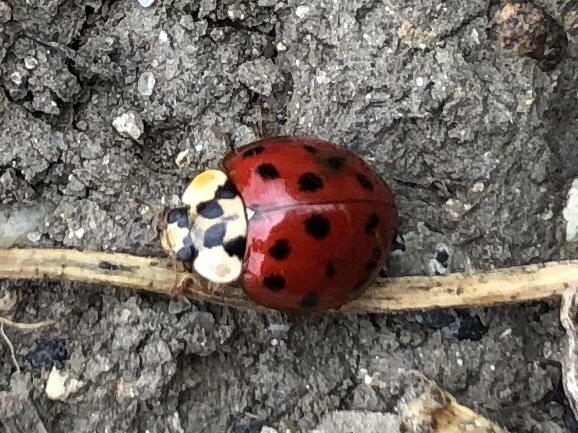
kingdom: Animalia
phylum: Arthropoda
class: Insecta
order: Coleoptera
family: Coccinellidae
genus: Harmonia
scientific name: Harmonia axyridis
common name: Harlequin ladybird
